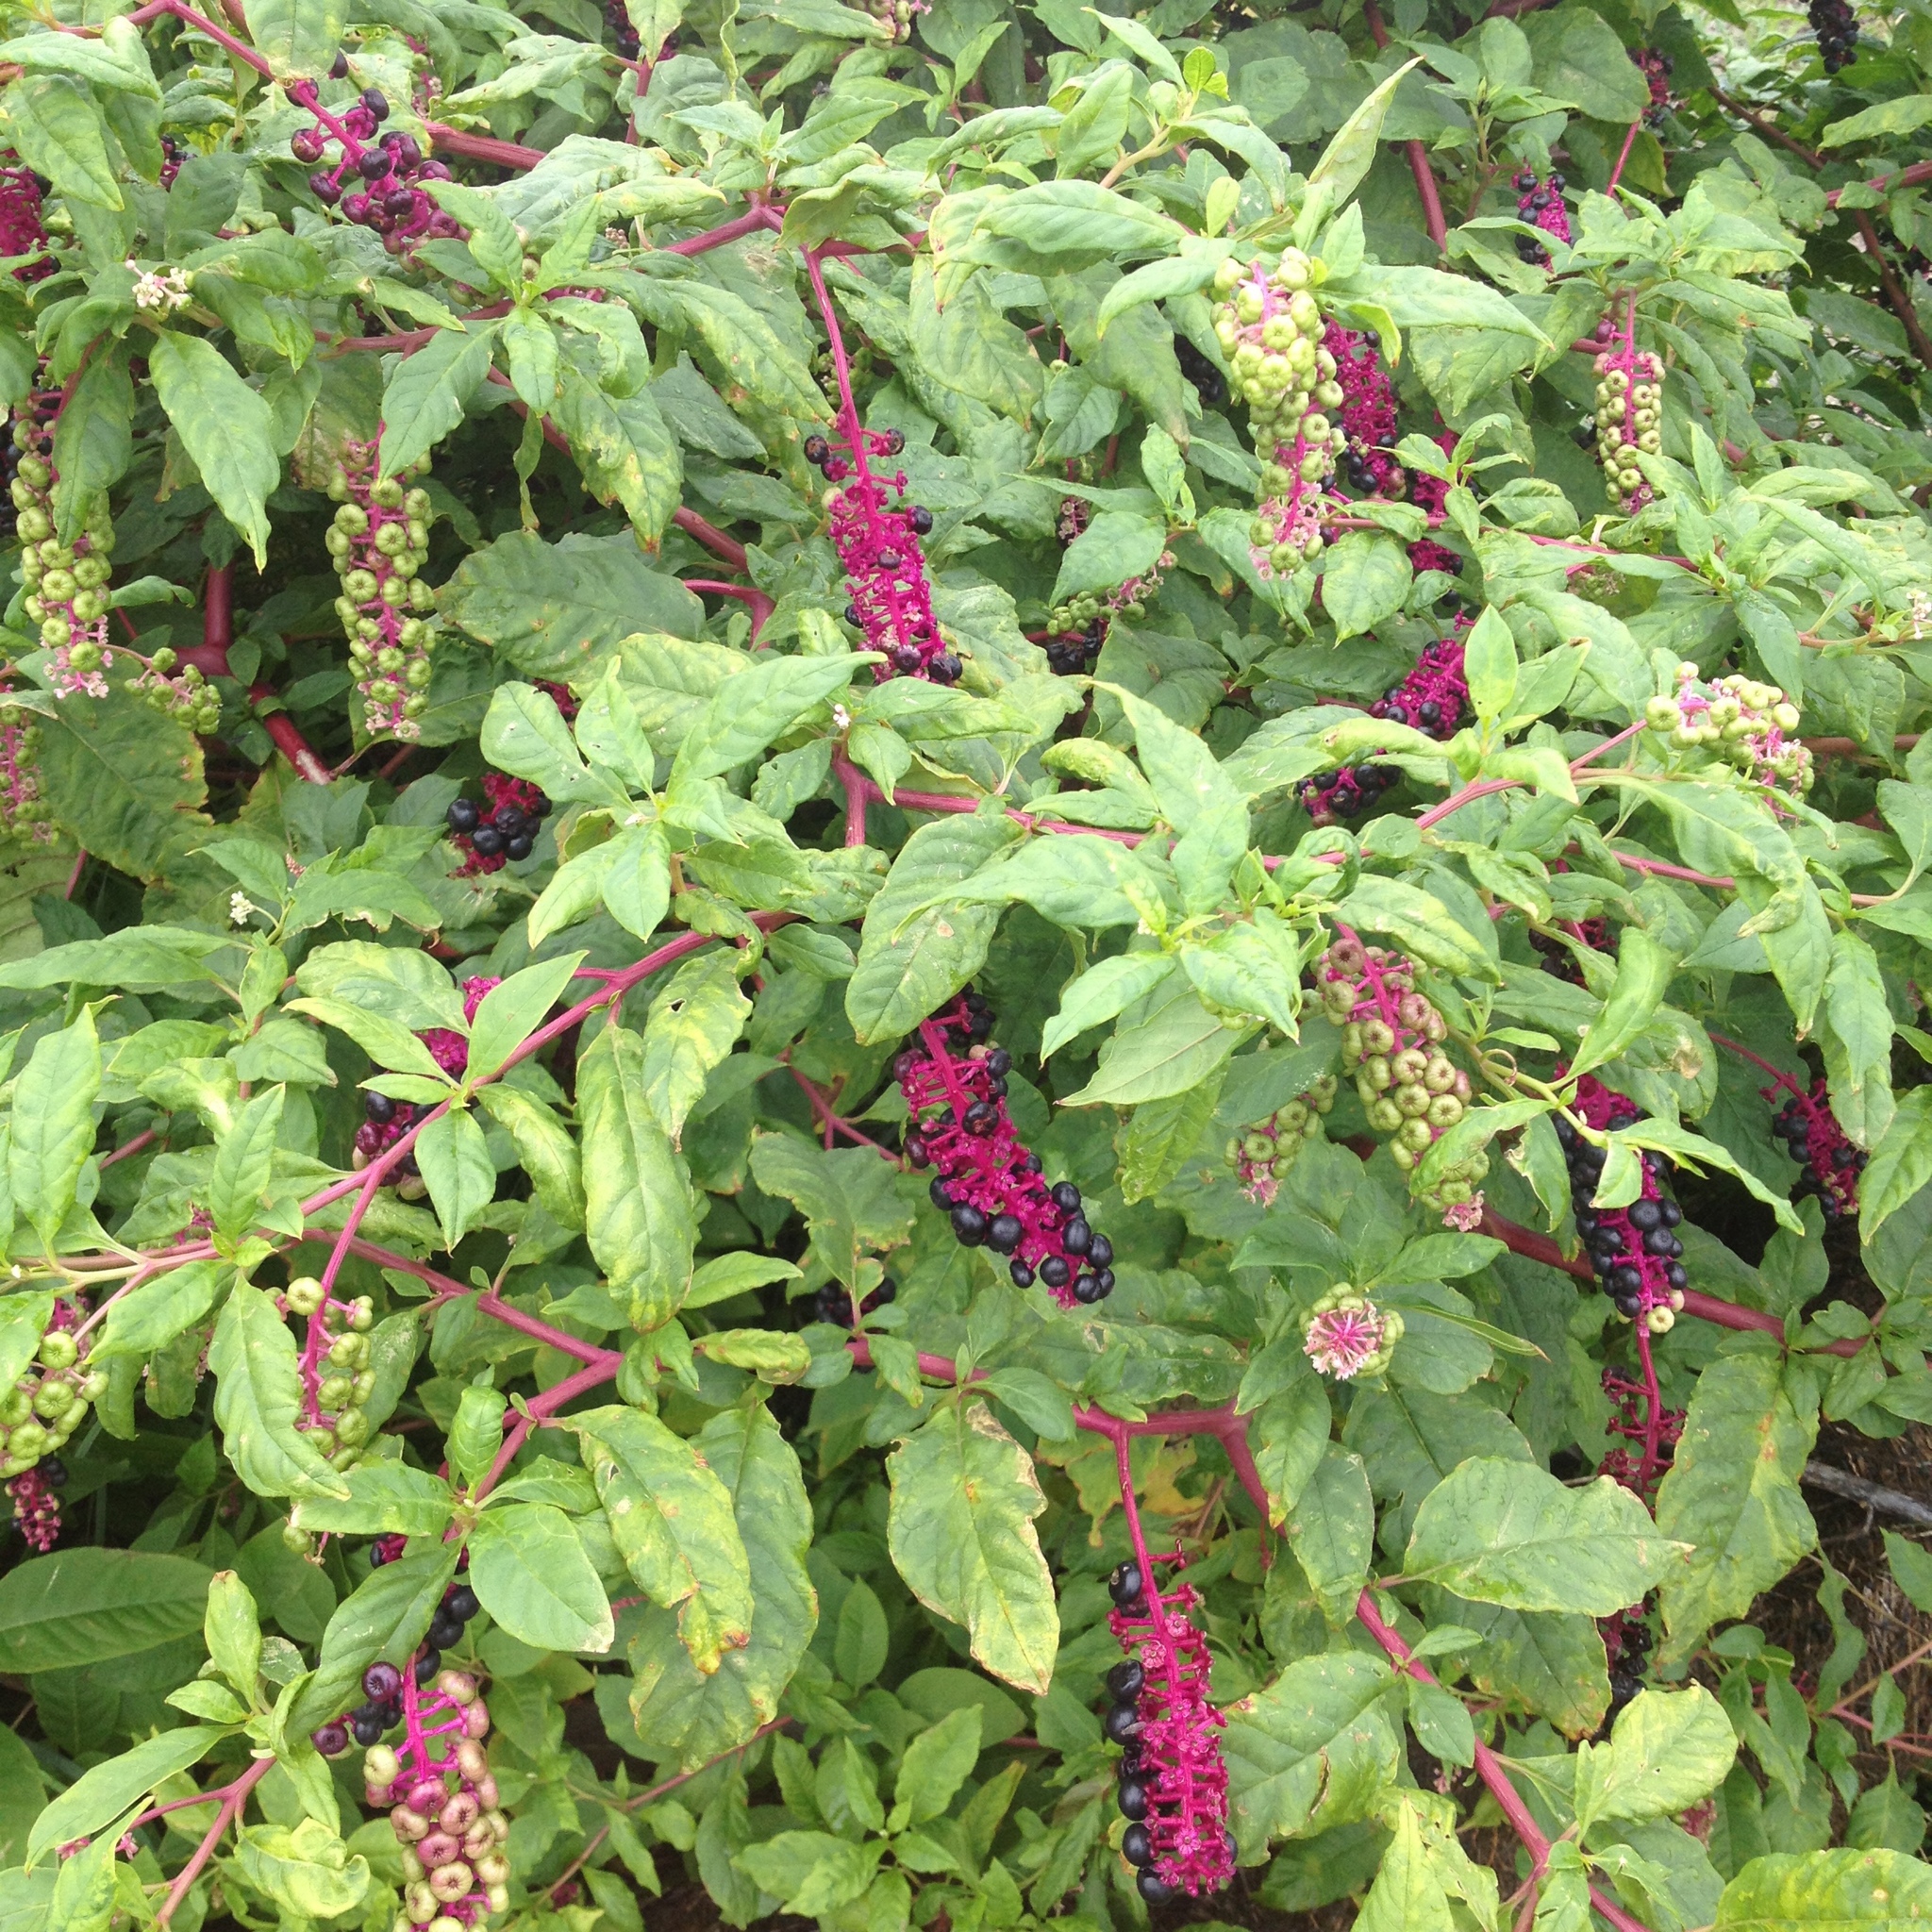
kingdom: Plantae
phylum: Tracheophyta
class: Magnoliopsida
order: Caryophyllales
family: Phytolaccaceae
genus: Phytolacca
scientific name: Phytolacca americana
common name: American pokeweed
